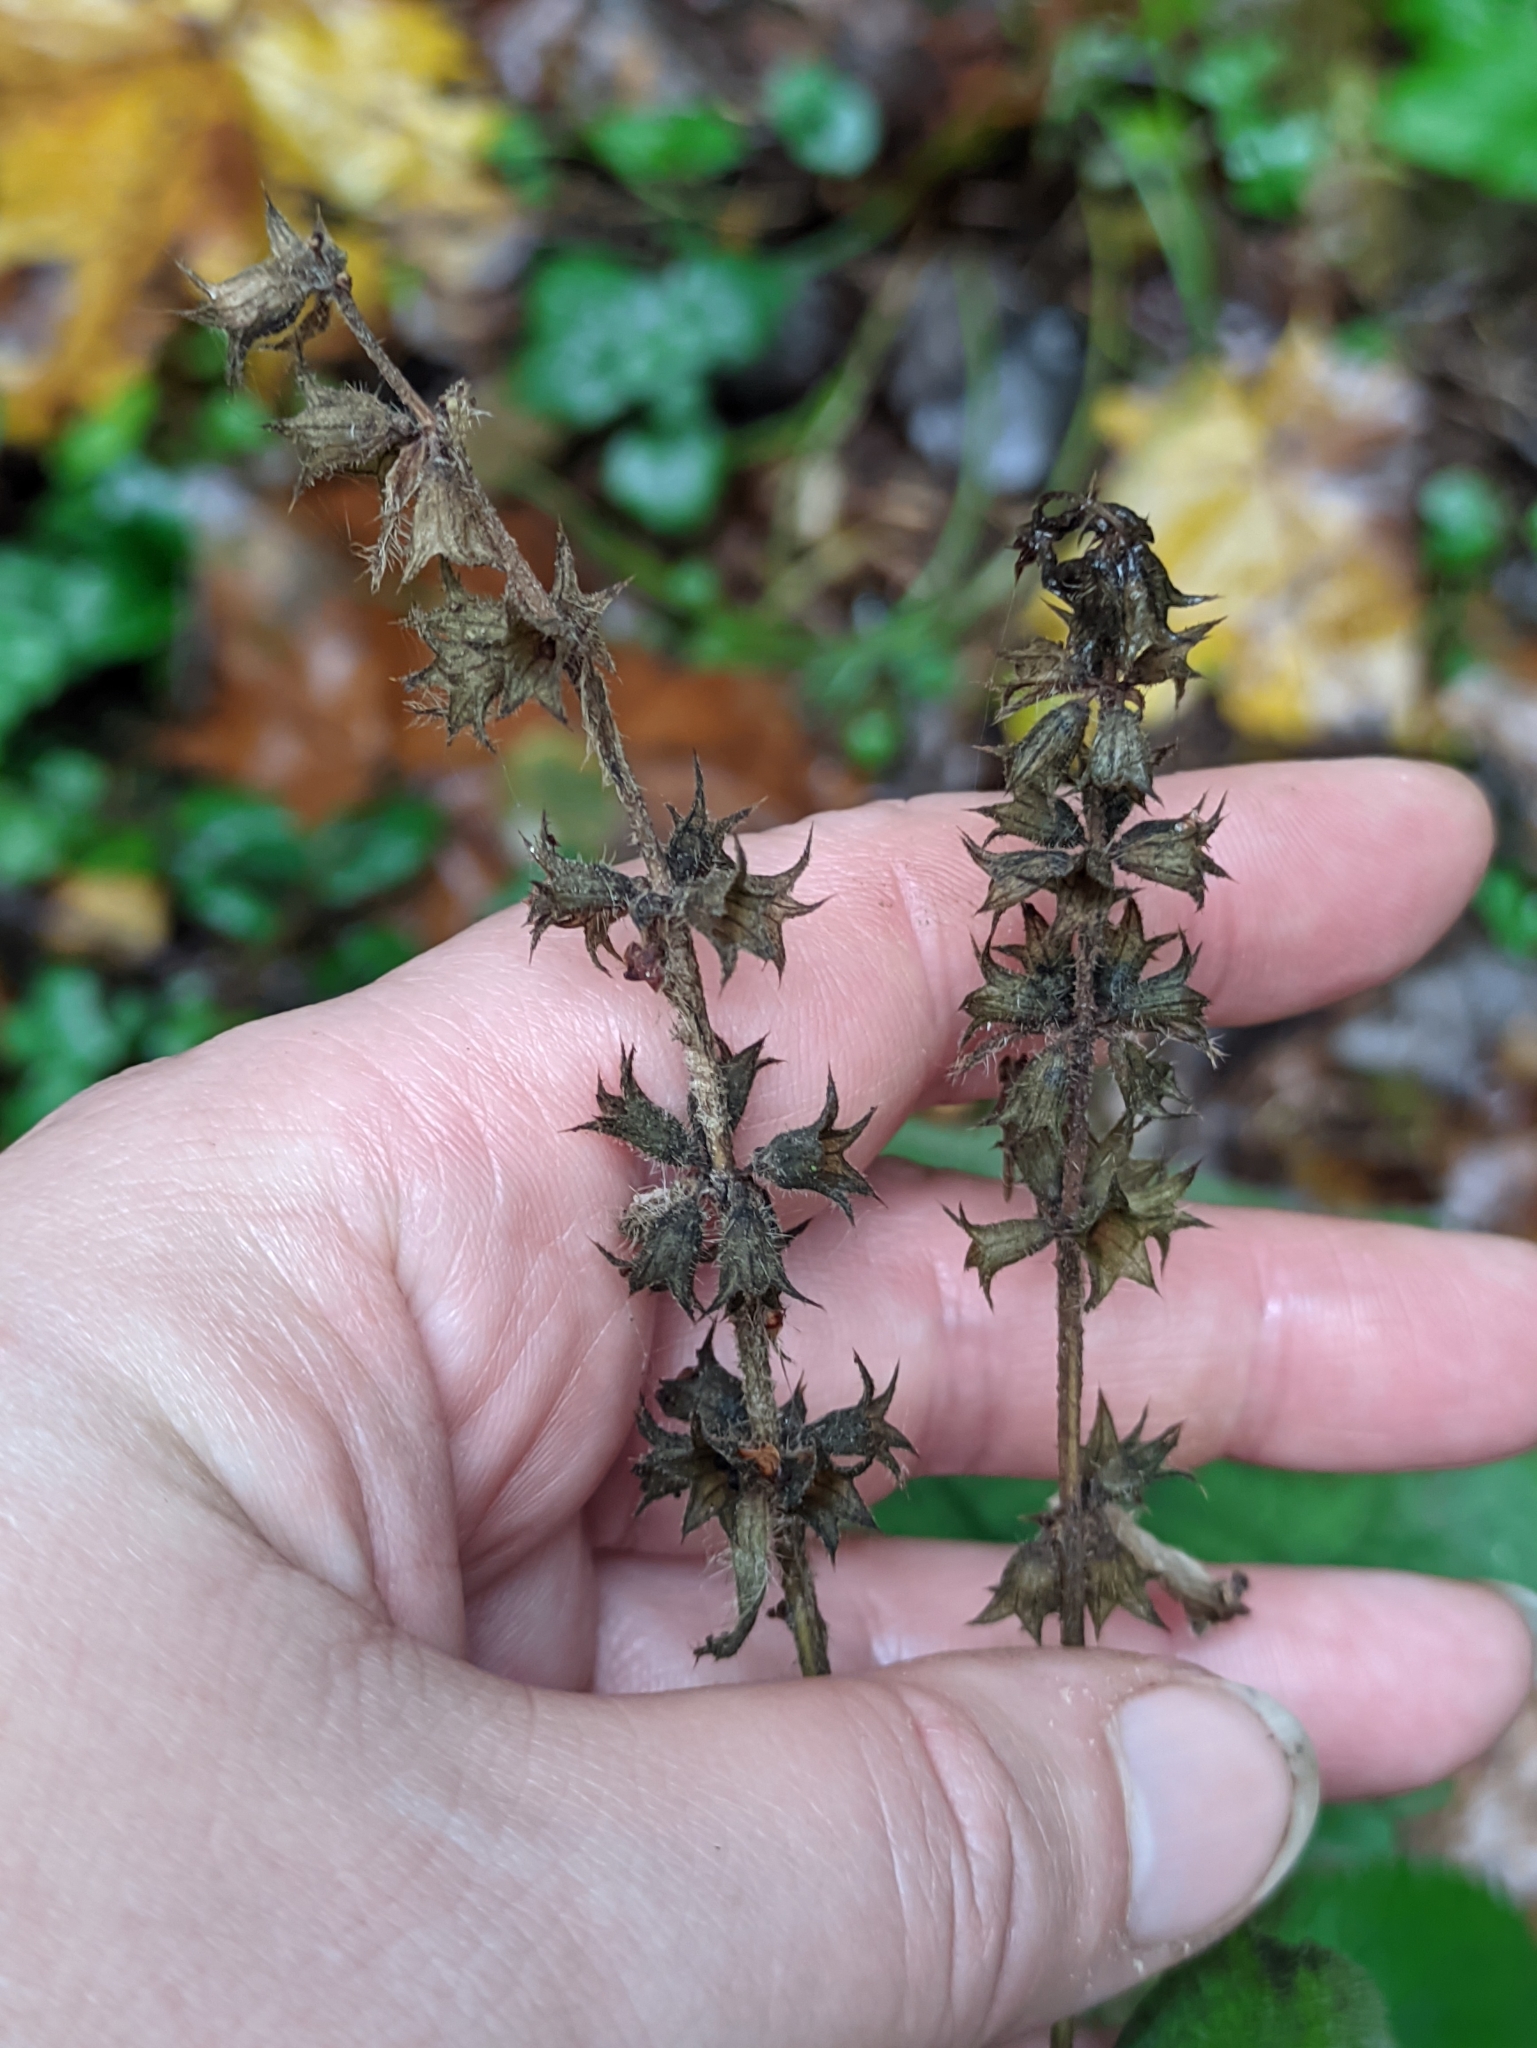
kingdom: Plantae
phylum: Tracheophyta
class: Magnoliopsida
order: Lamiales
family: Lamiaceae
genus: Stachys
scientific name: Stachys sylvatica
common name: Hedge woundwort
